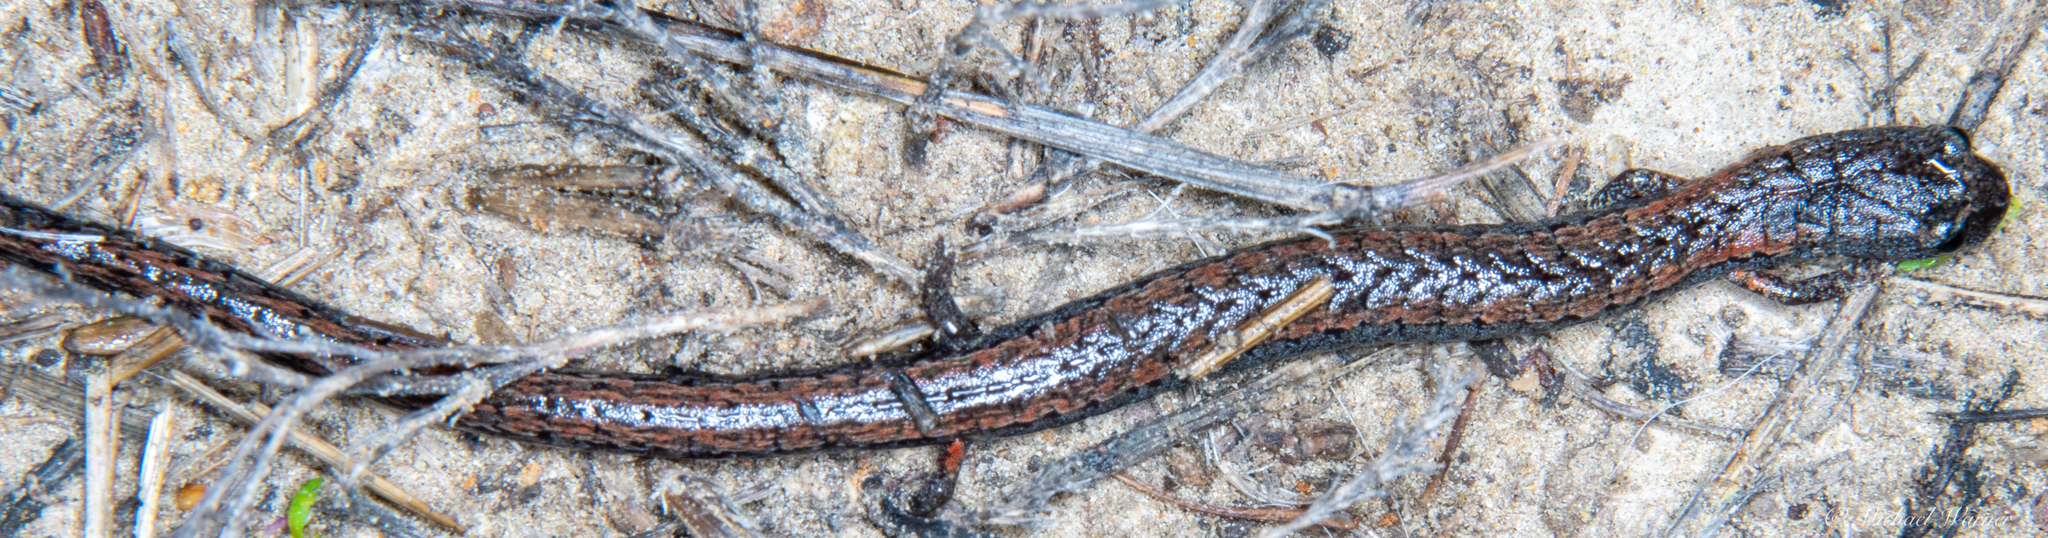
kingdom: Animalia
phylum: Chordata
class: Amphibia
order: Caudata
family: Plethodontidae
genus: Batrachoseps
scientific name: Batrachoseps attenuatus
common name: California slender salamander
